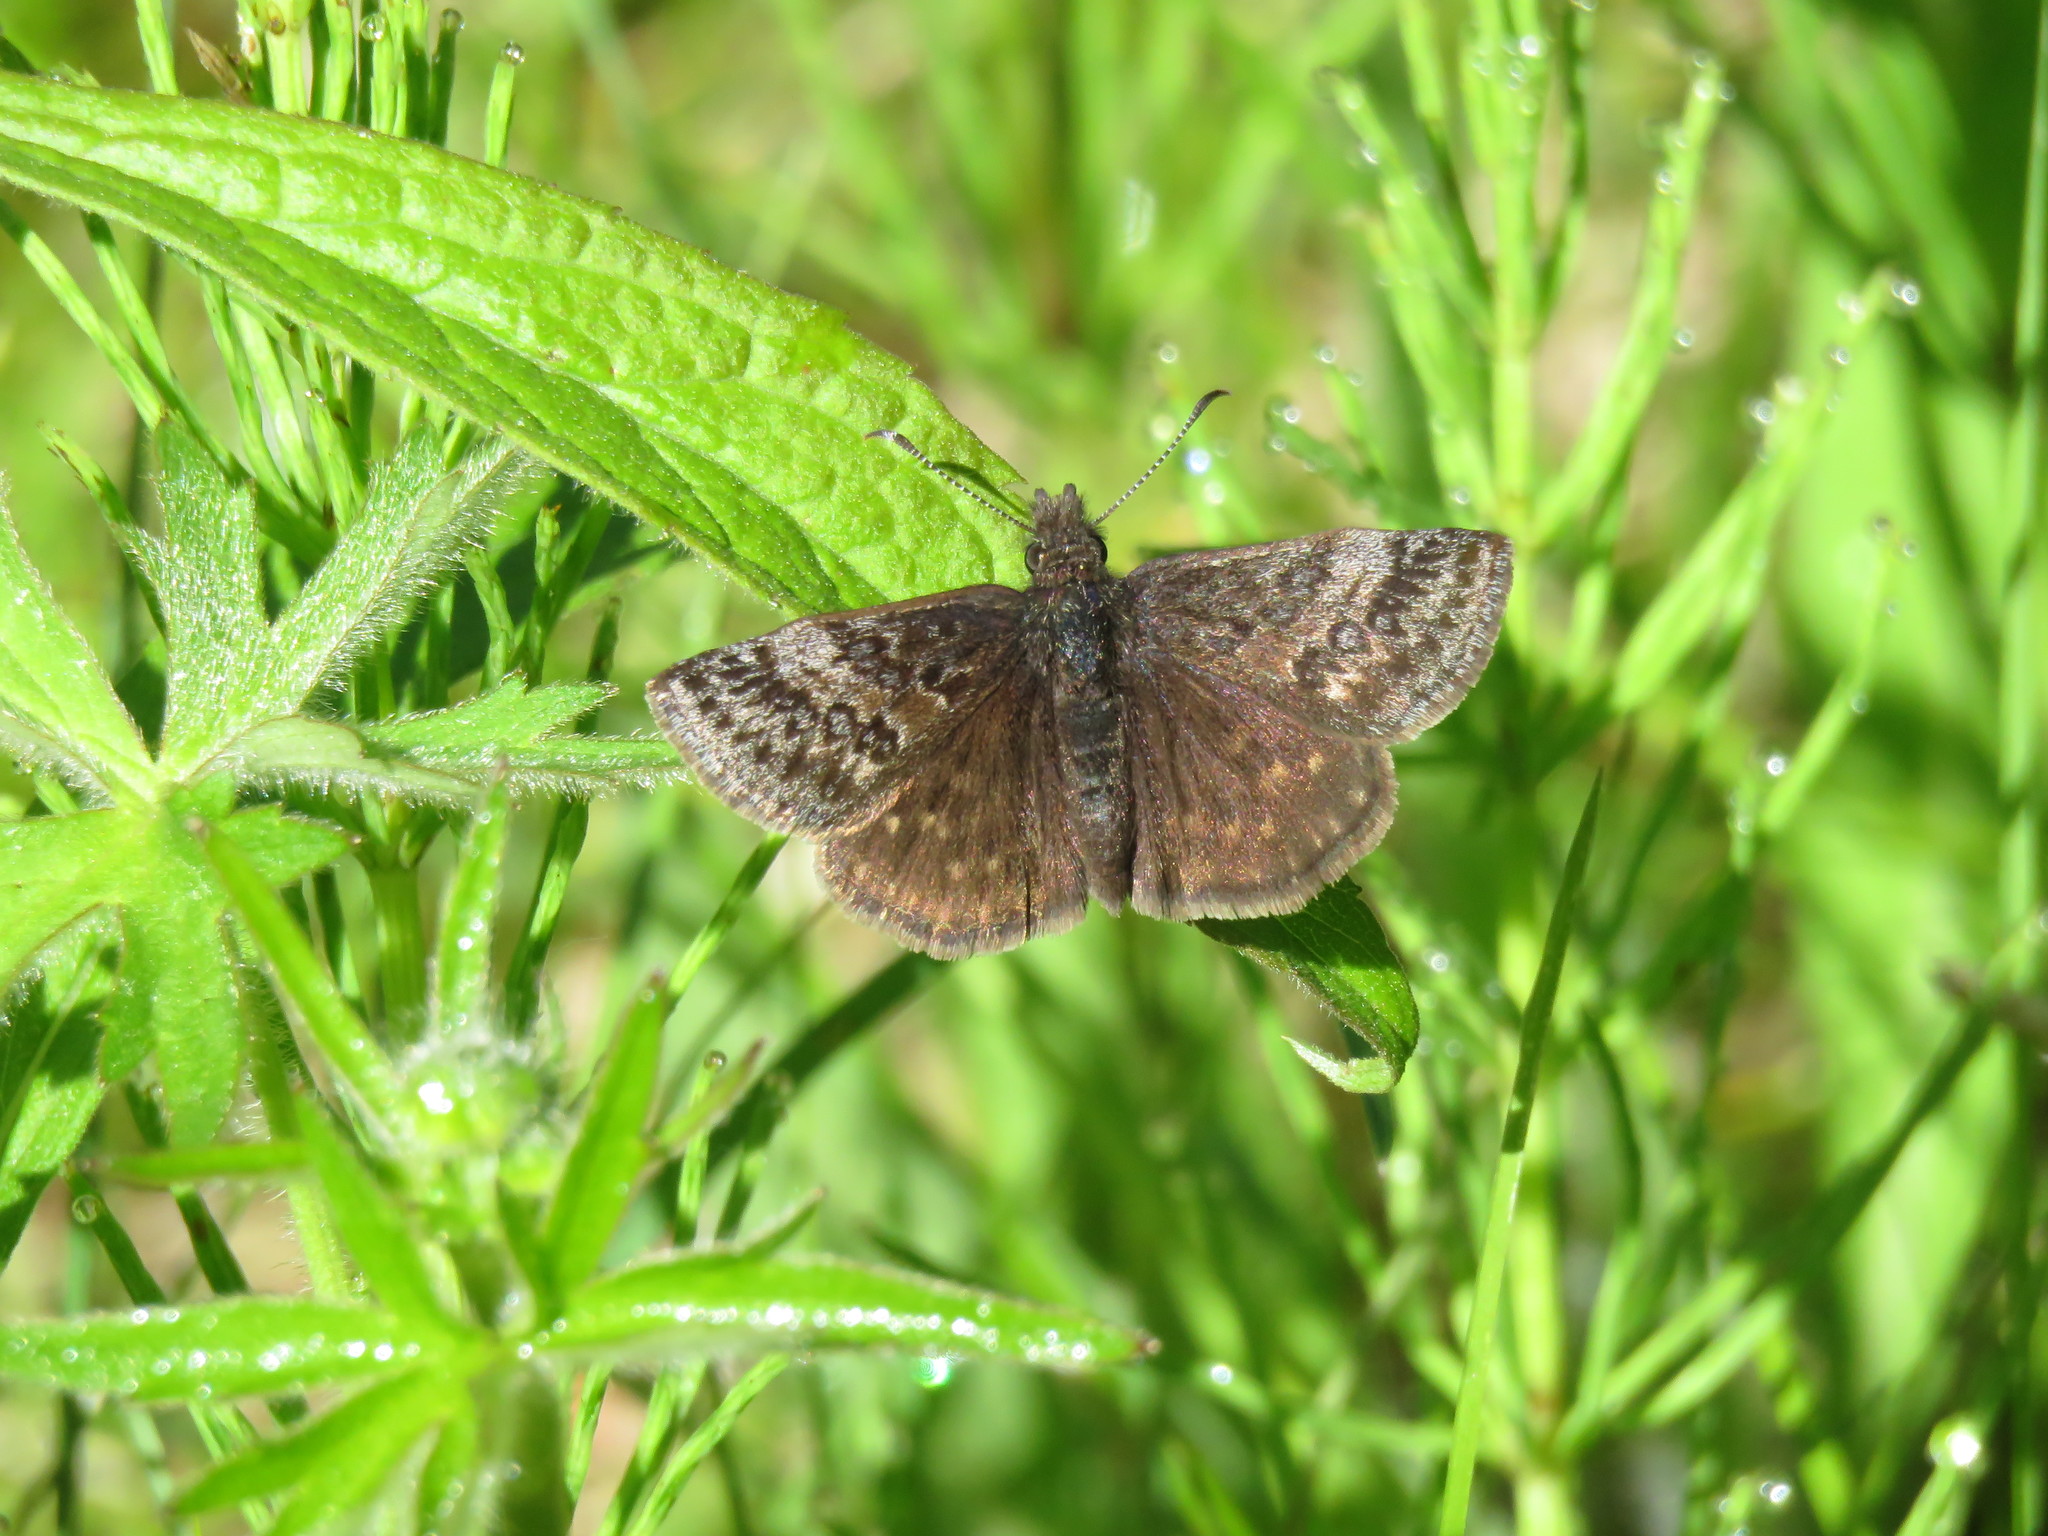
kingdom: Animalia
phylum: Arthropoda
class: Insecta
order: Lepidoptera
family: Hesperiidae
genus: Erynnis
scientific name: Erynnis icelus
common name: Dreamy duskywing
